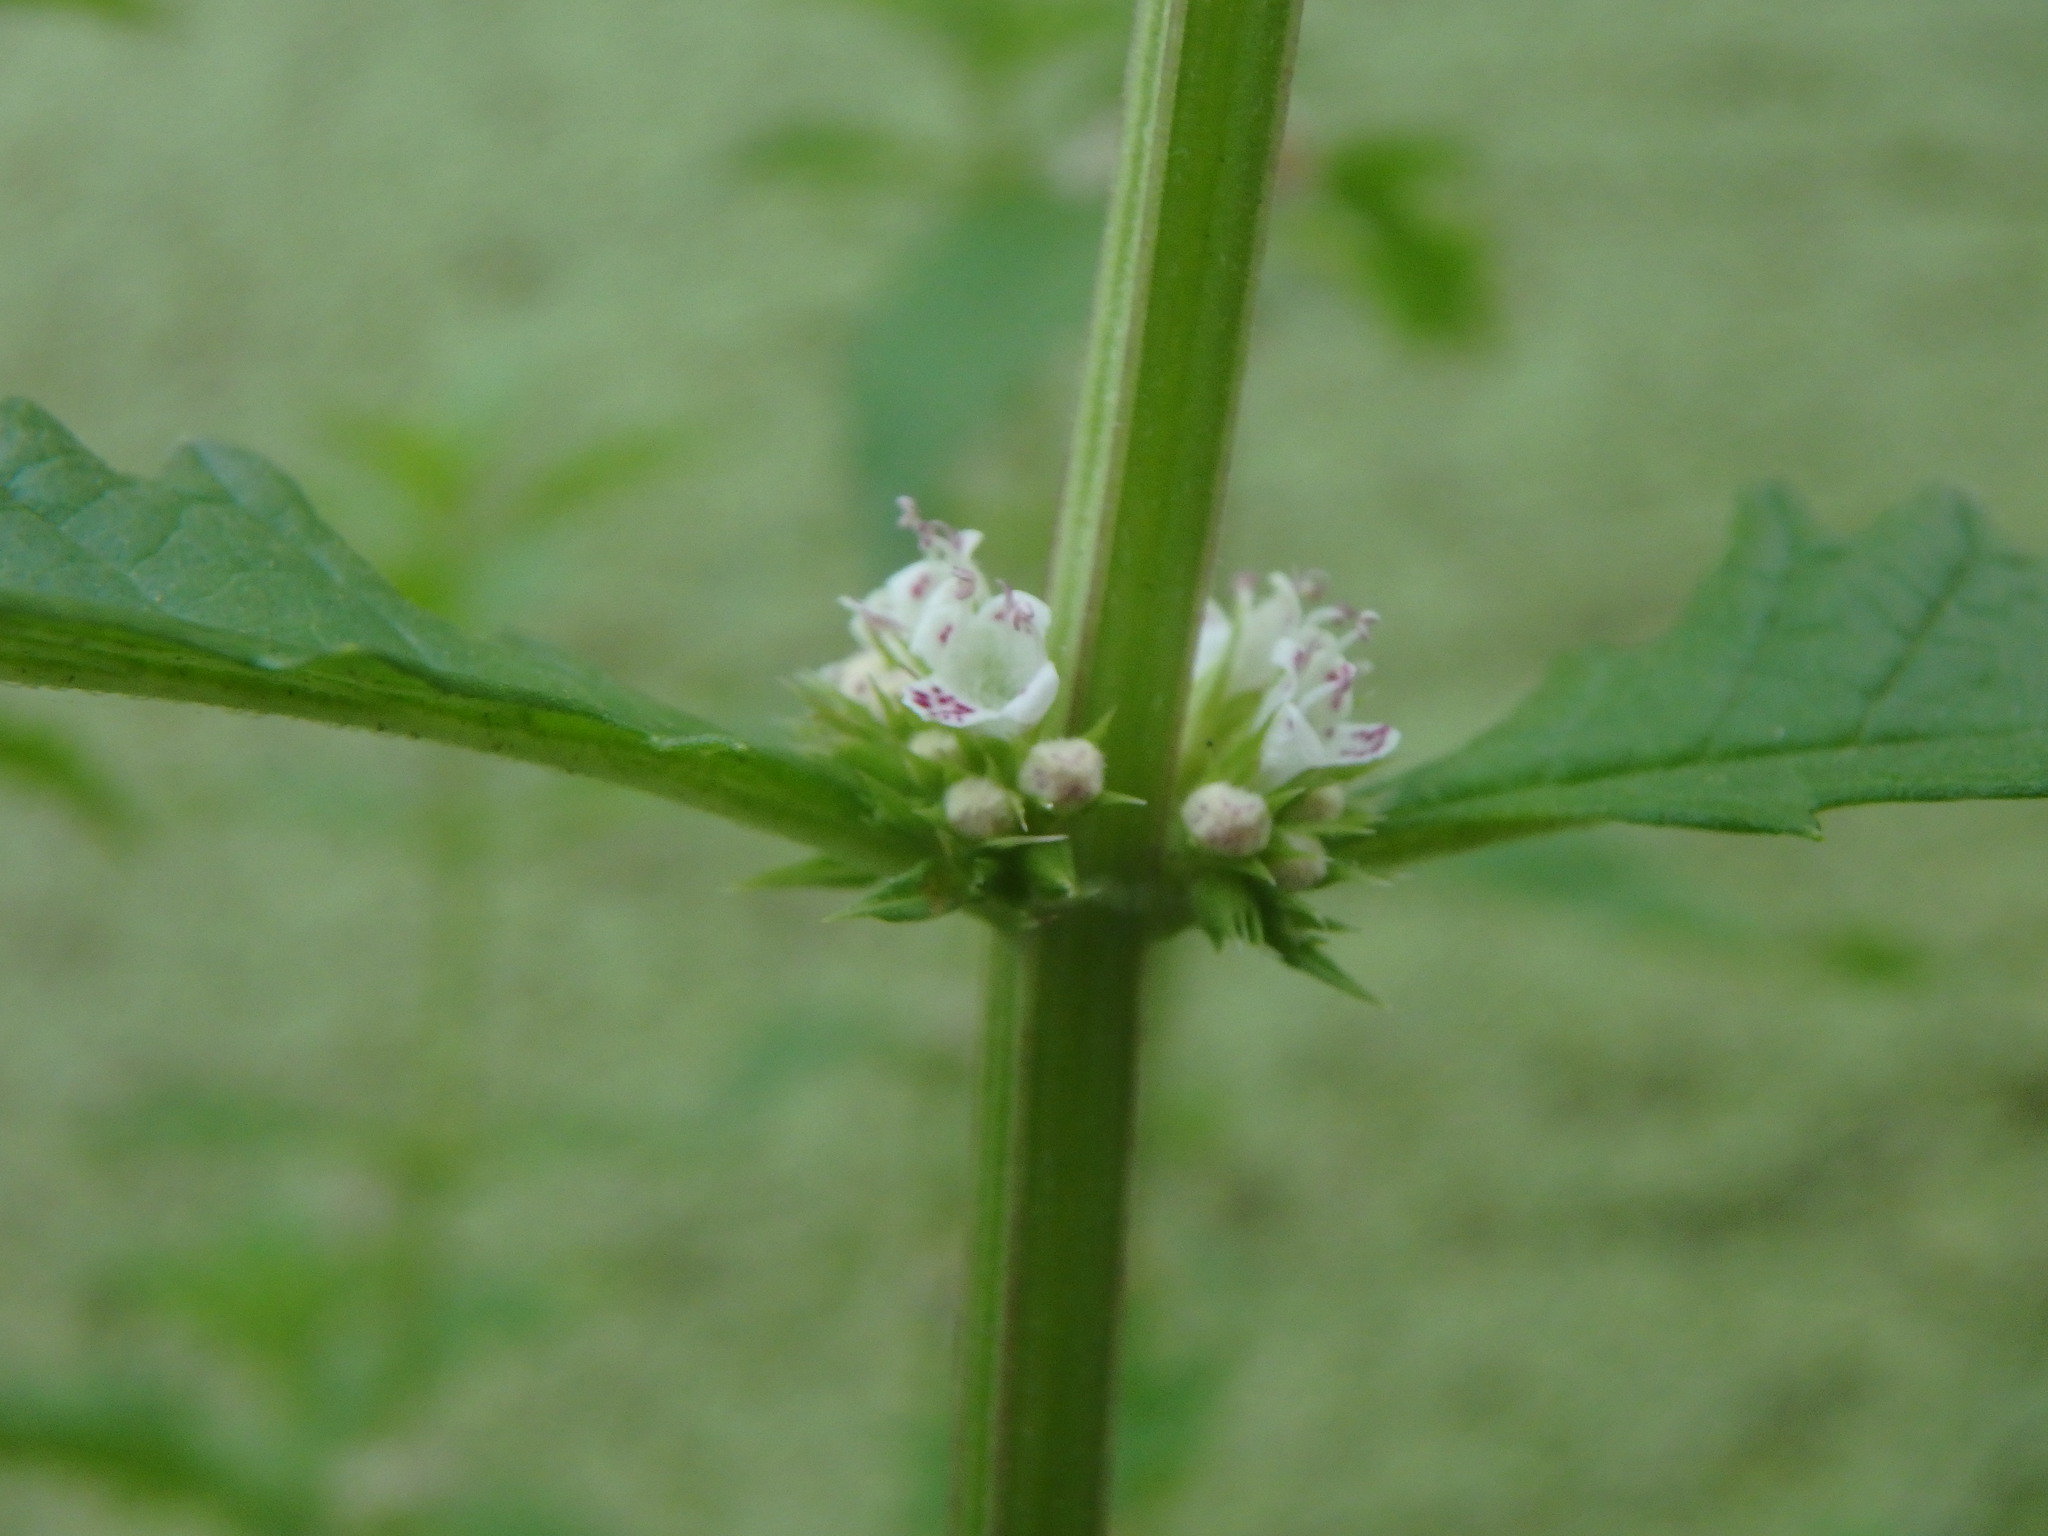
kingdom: Plantae
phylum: Tracheophyta
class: Magnoliopsida
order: Lamiales
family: Lamiaceae
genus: Lycopus
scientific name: Lycopus europaeus
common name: European bugleweed
